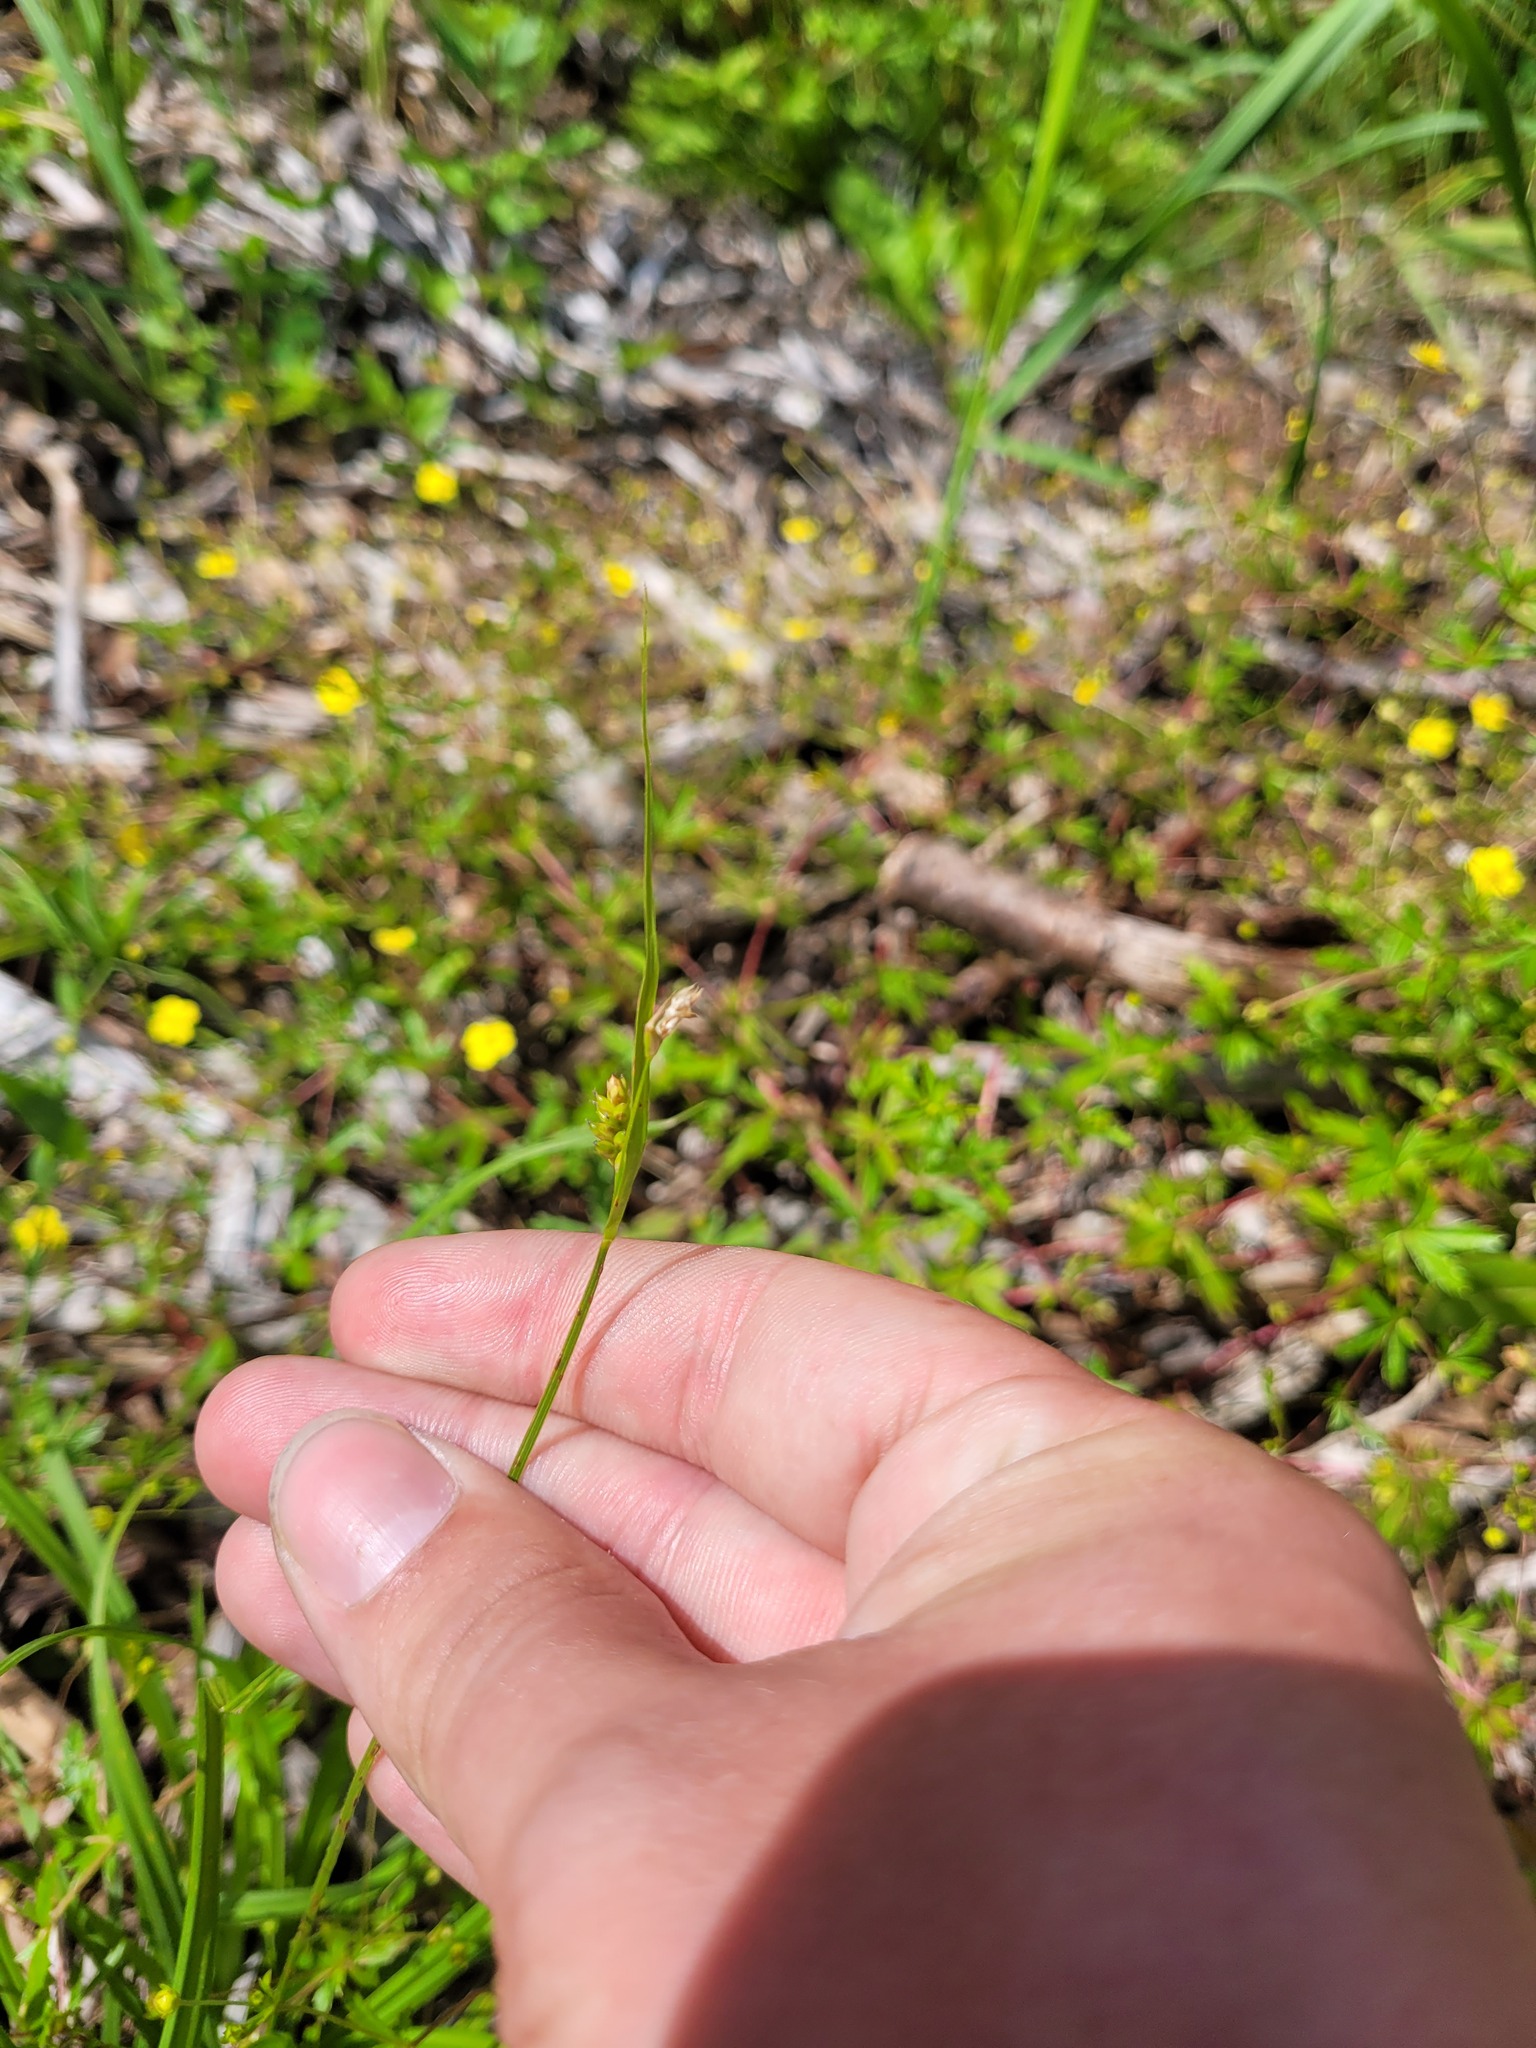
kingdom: Plantae
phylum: Tracheophyta
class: Liliopsida
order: Poales
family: Cyperaceae
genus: Carex
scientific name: Carex pallescens
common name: Pale sedge
